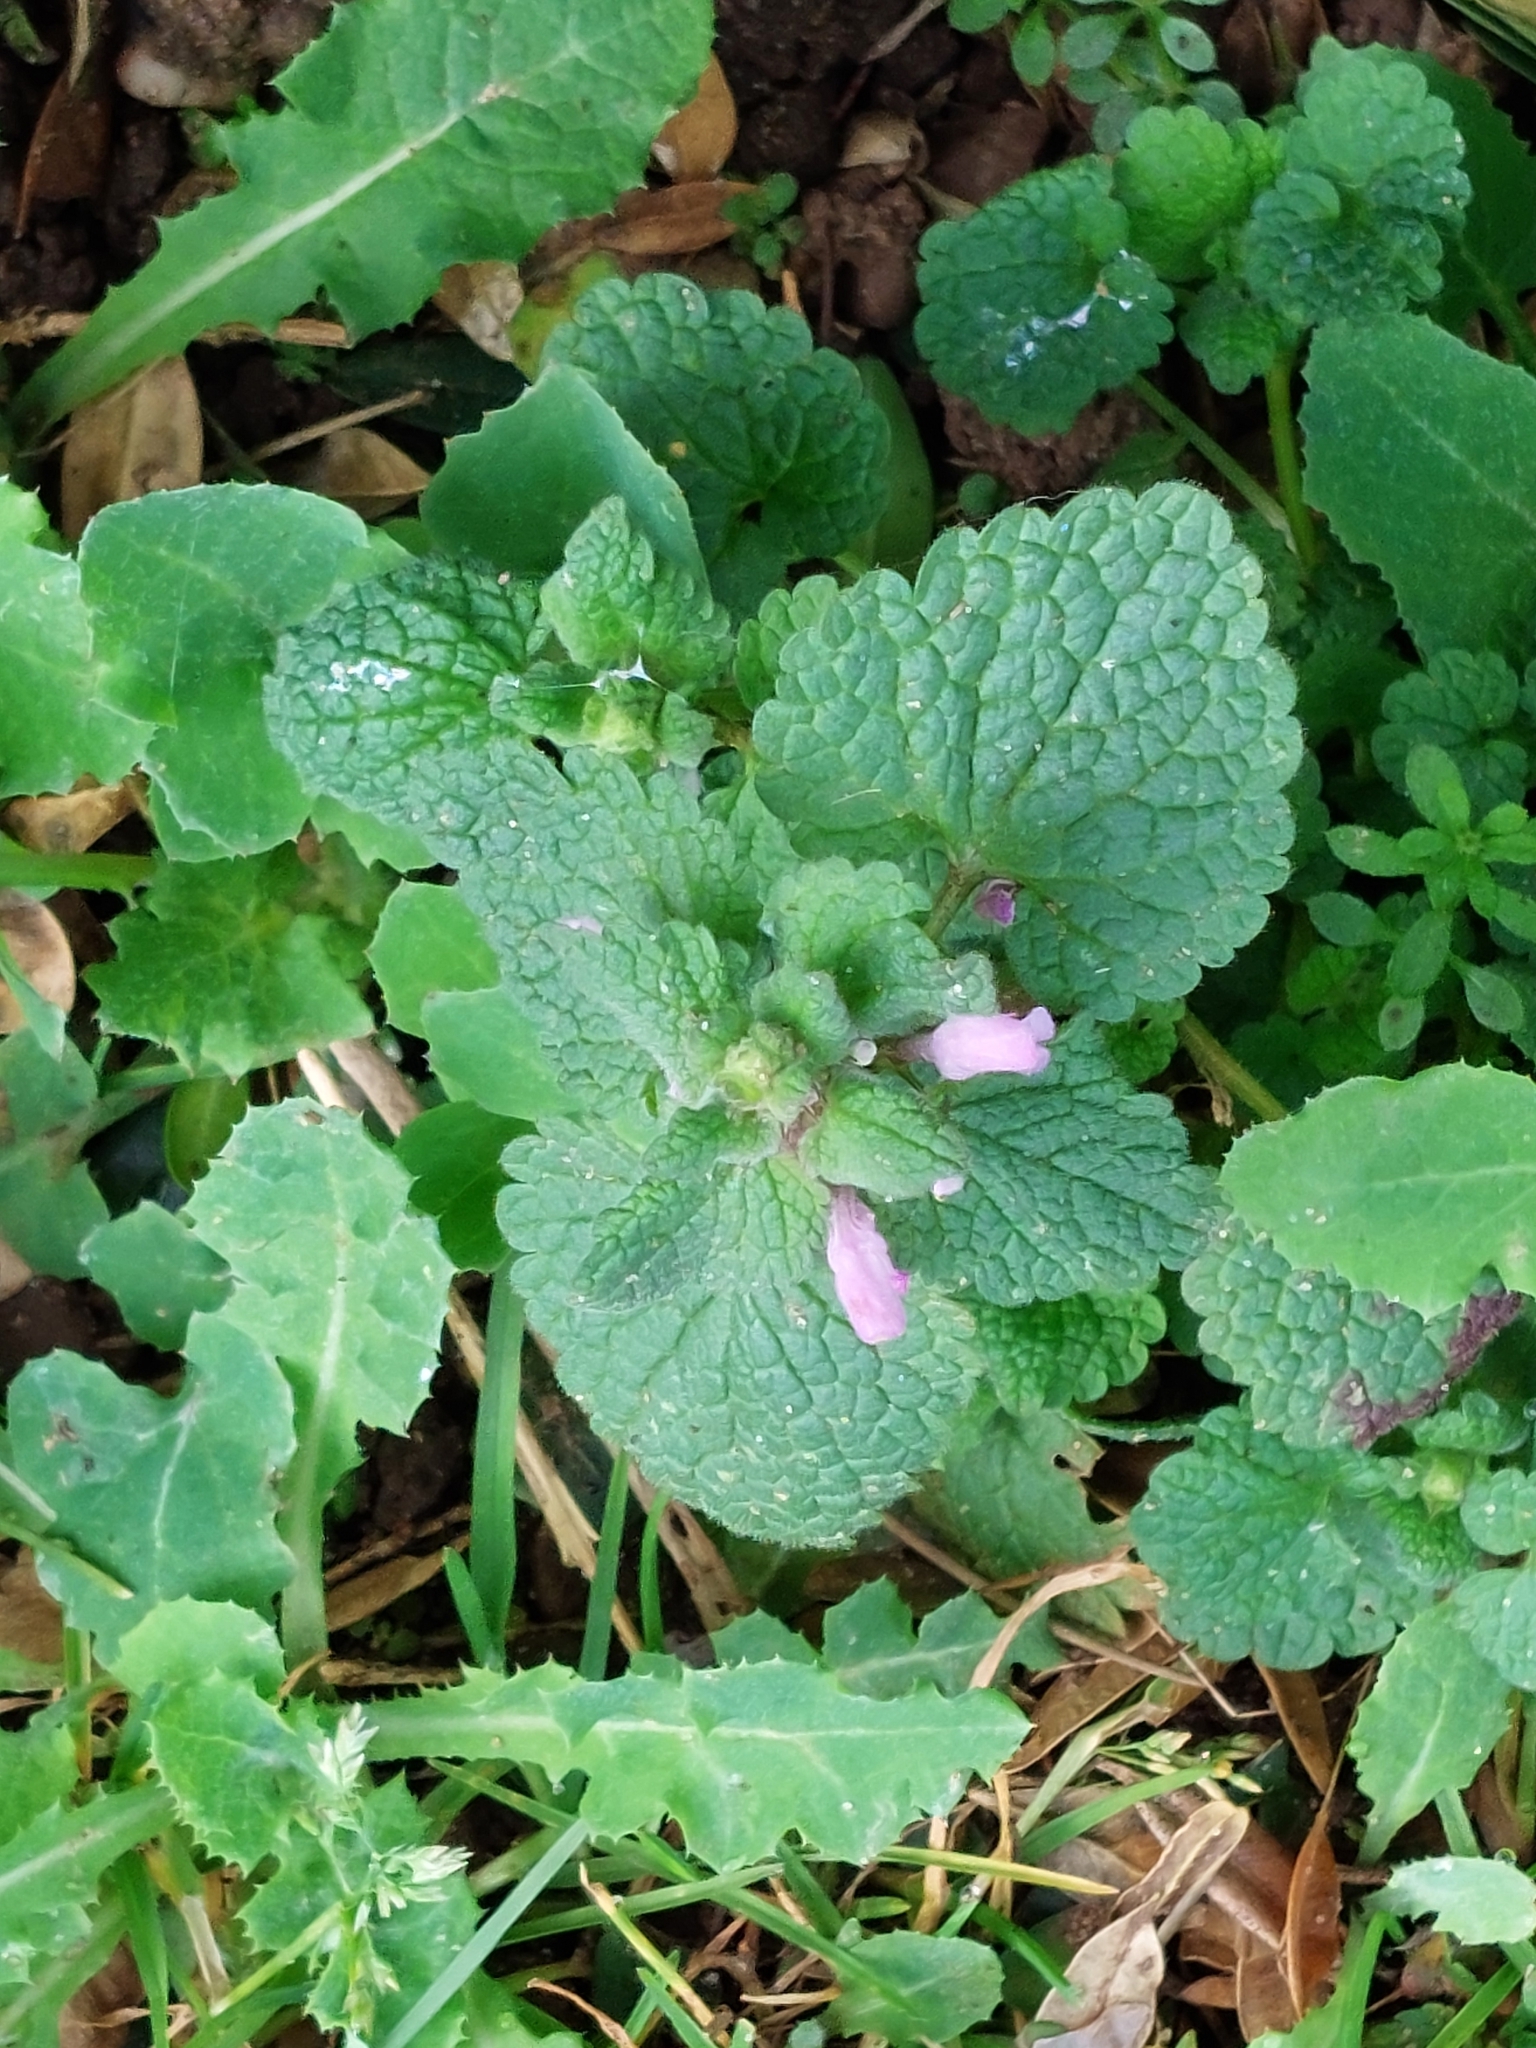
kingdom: Plantae
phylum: Tracheophyta
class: Magnoliopsida
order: Lamiales
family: Lamiaceae
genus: Lamium
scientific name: Lamium purpureum
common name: Red dead-nettle
